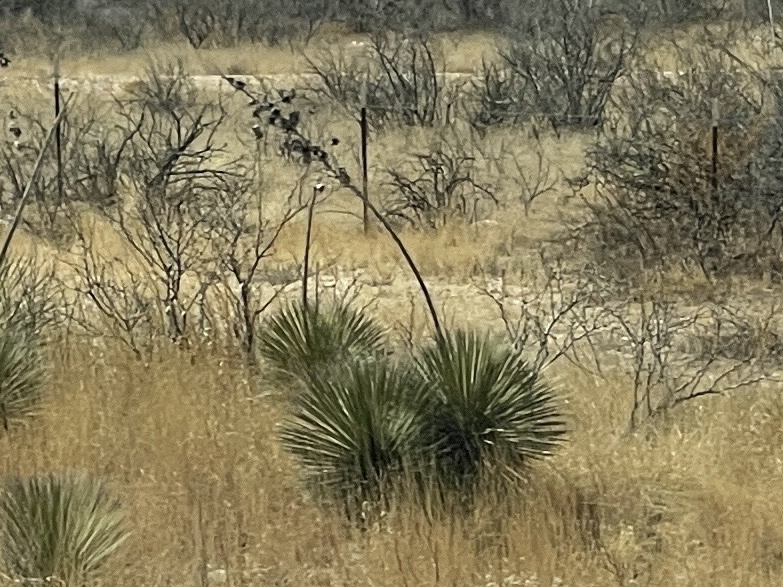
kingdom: Plantae
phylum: Tracheophyta
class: Liliopsida
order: Asparagales
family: Asparagaceae
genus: Yucca
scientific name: Yucca elata
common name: Palmella
